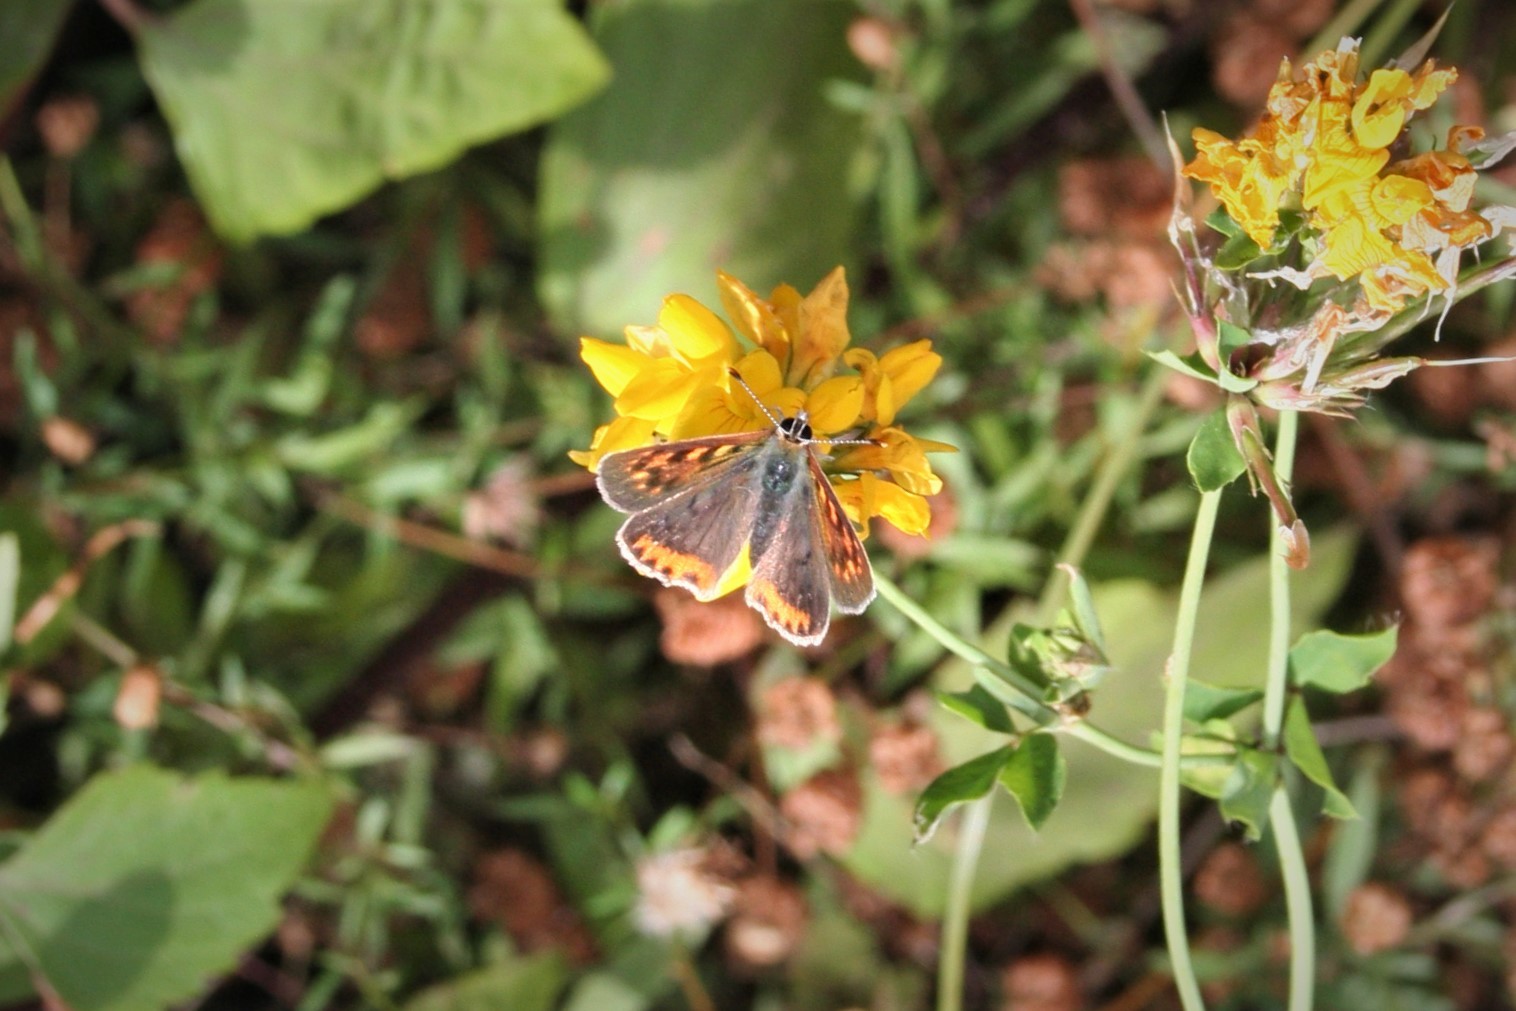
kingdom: Animalia
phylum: Arthropoda
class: Insecta
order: Lepidoptera
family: Lycaenidae
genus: Lycaena
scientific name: Lycaena phlaeas
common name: Small copper
